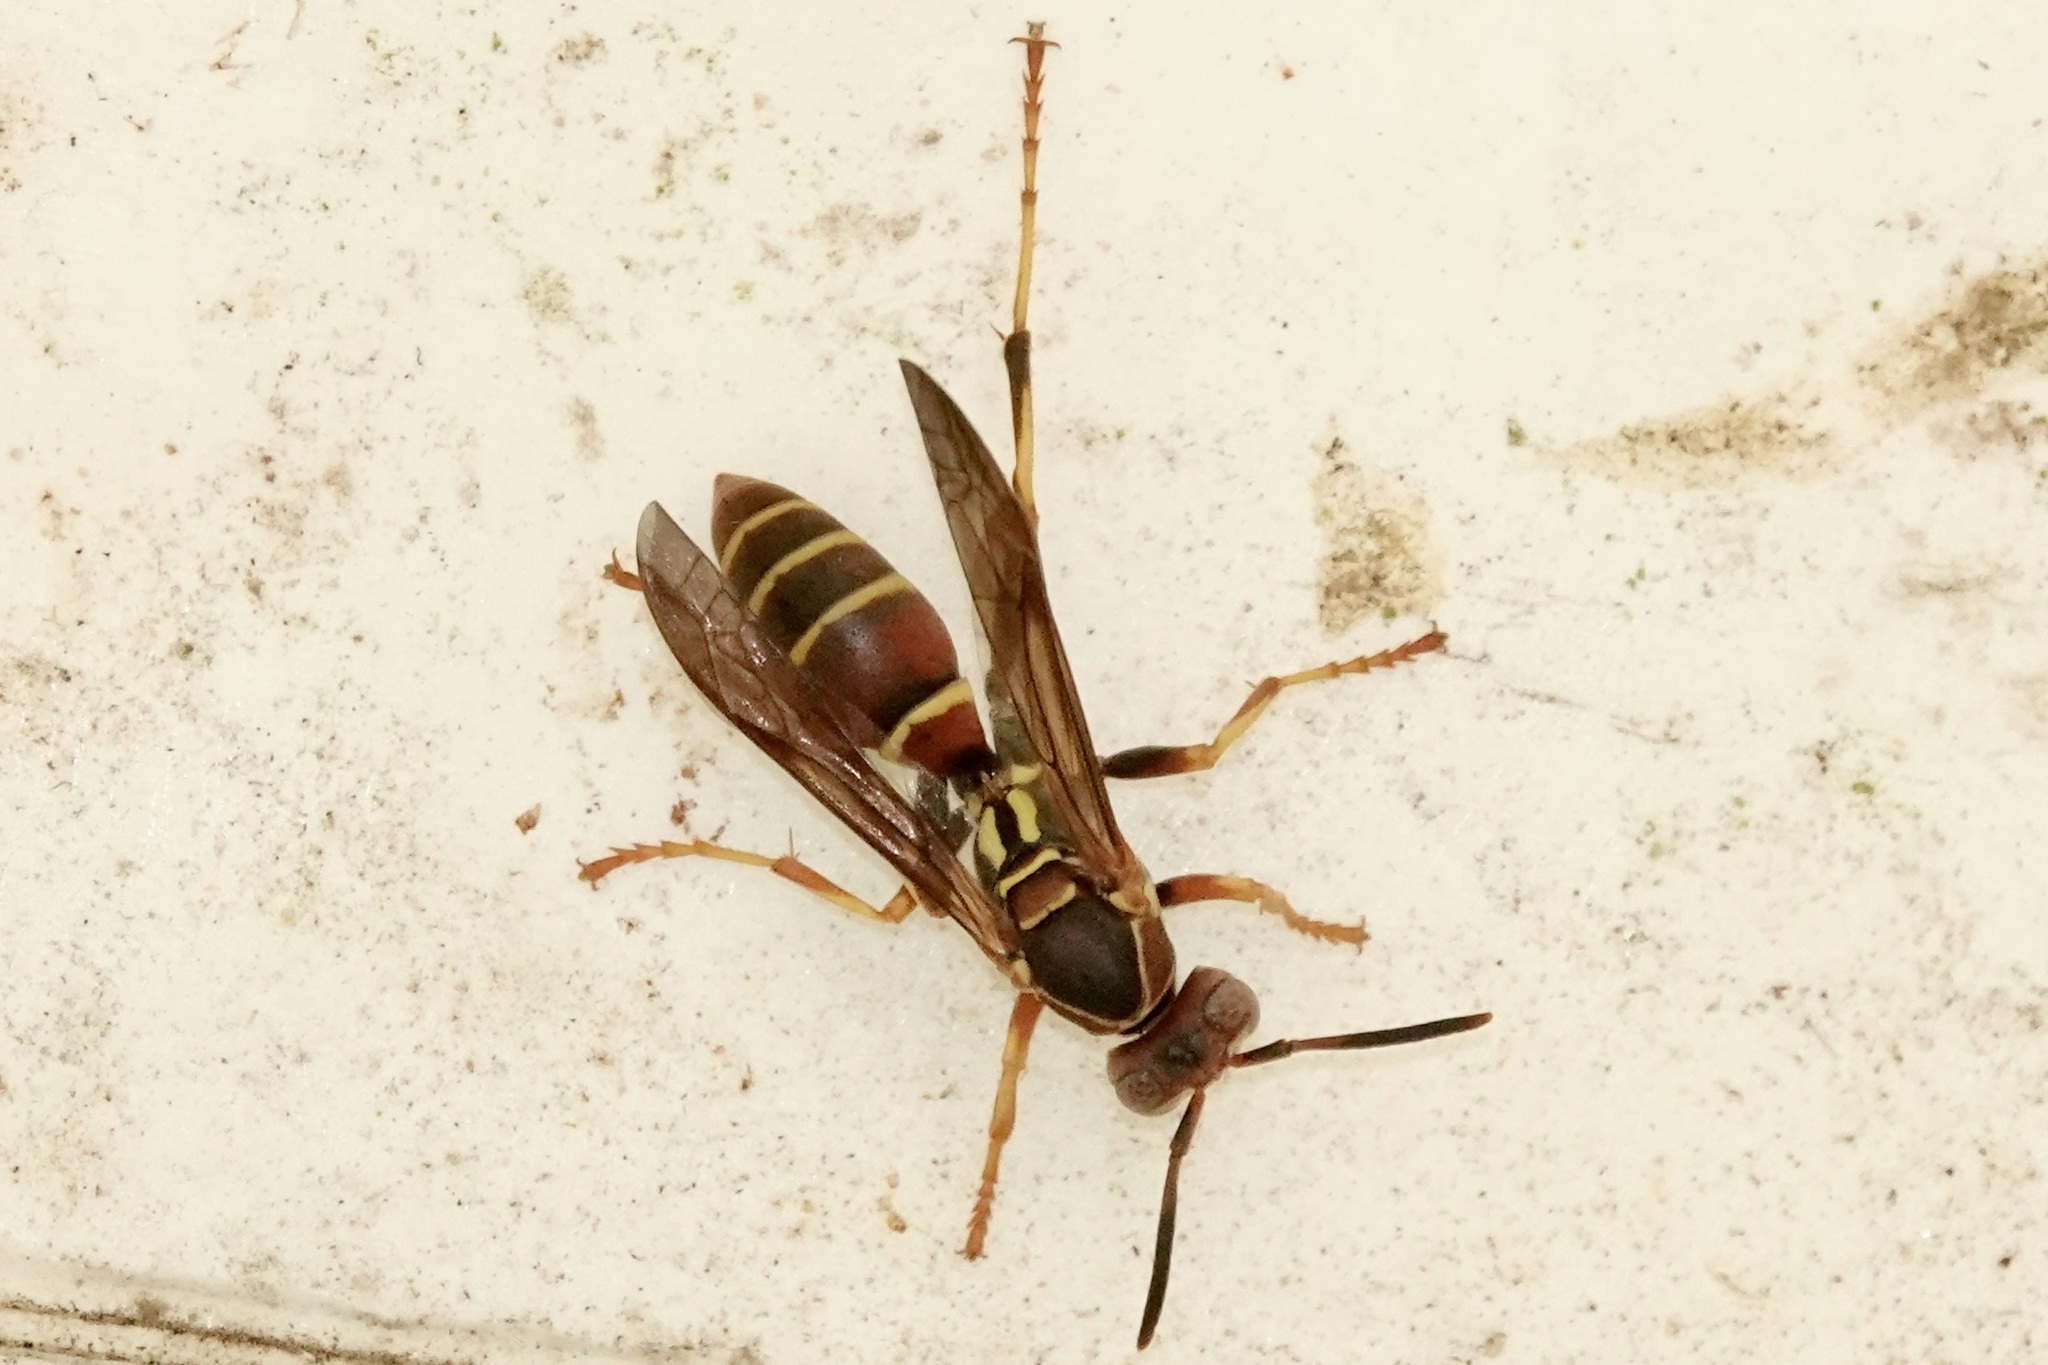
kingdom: Animalia
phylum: Arthropoda
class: Insecta
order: Hymenoptera
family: Eumenidae
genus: Polistes
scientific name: Polistes dorsalis
